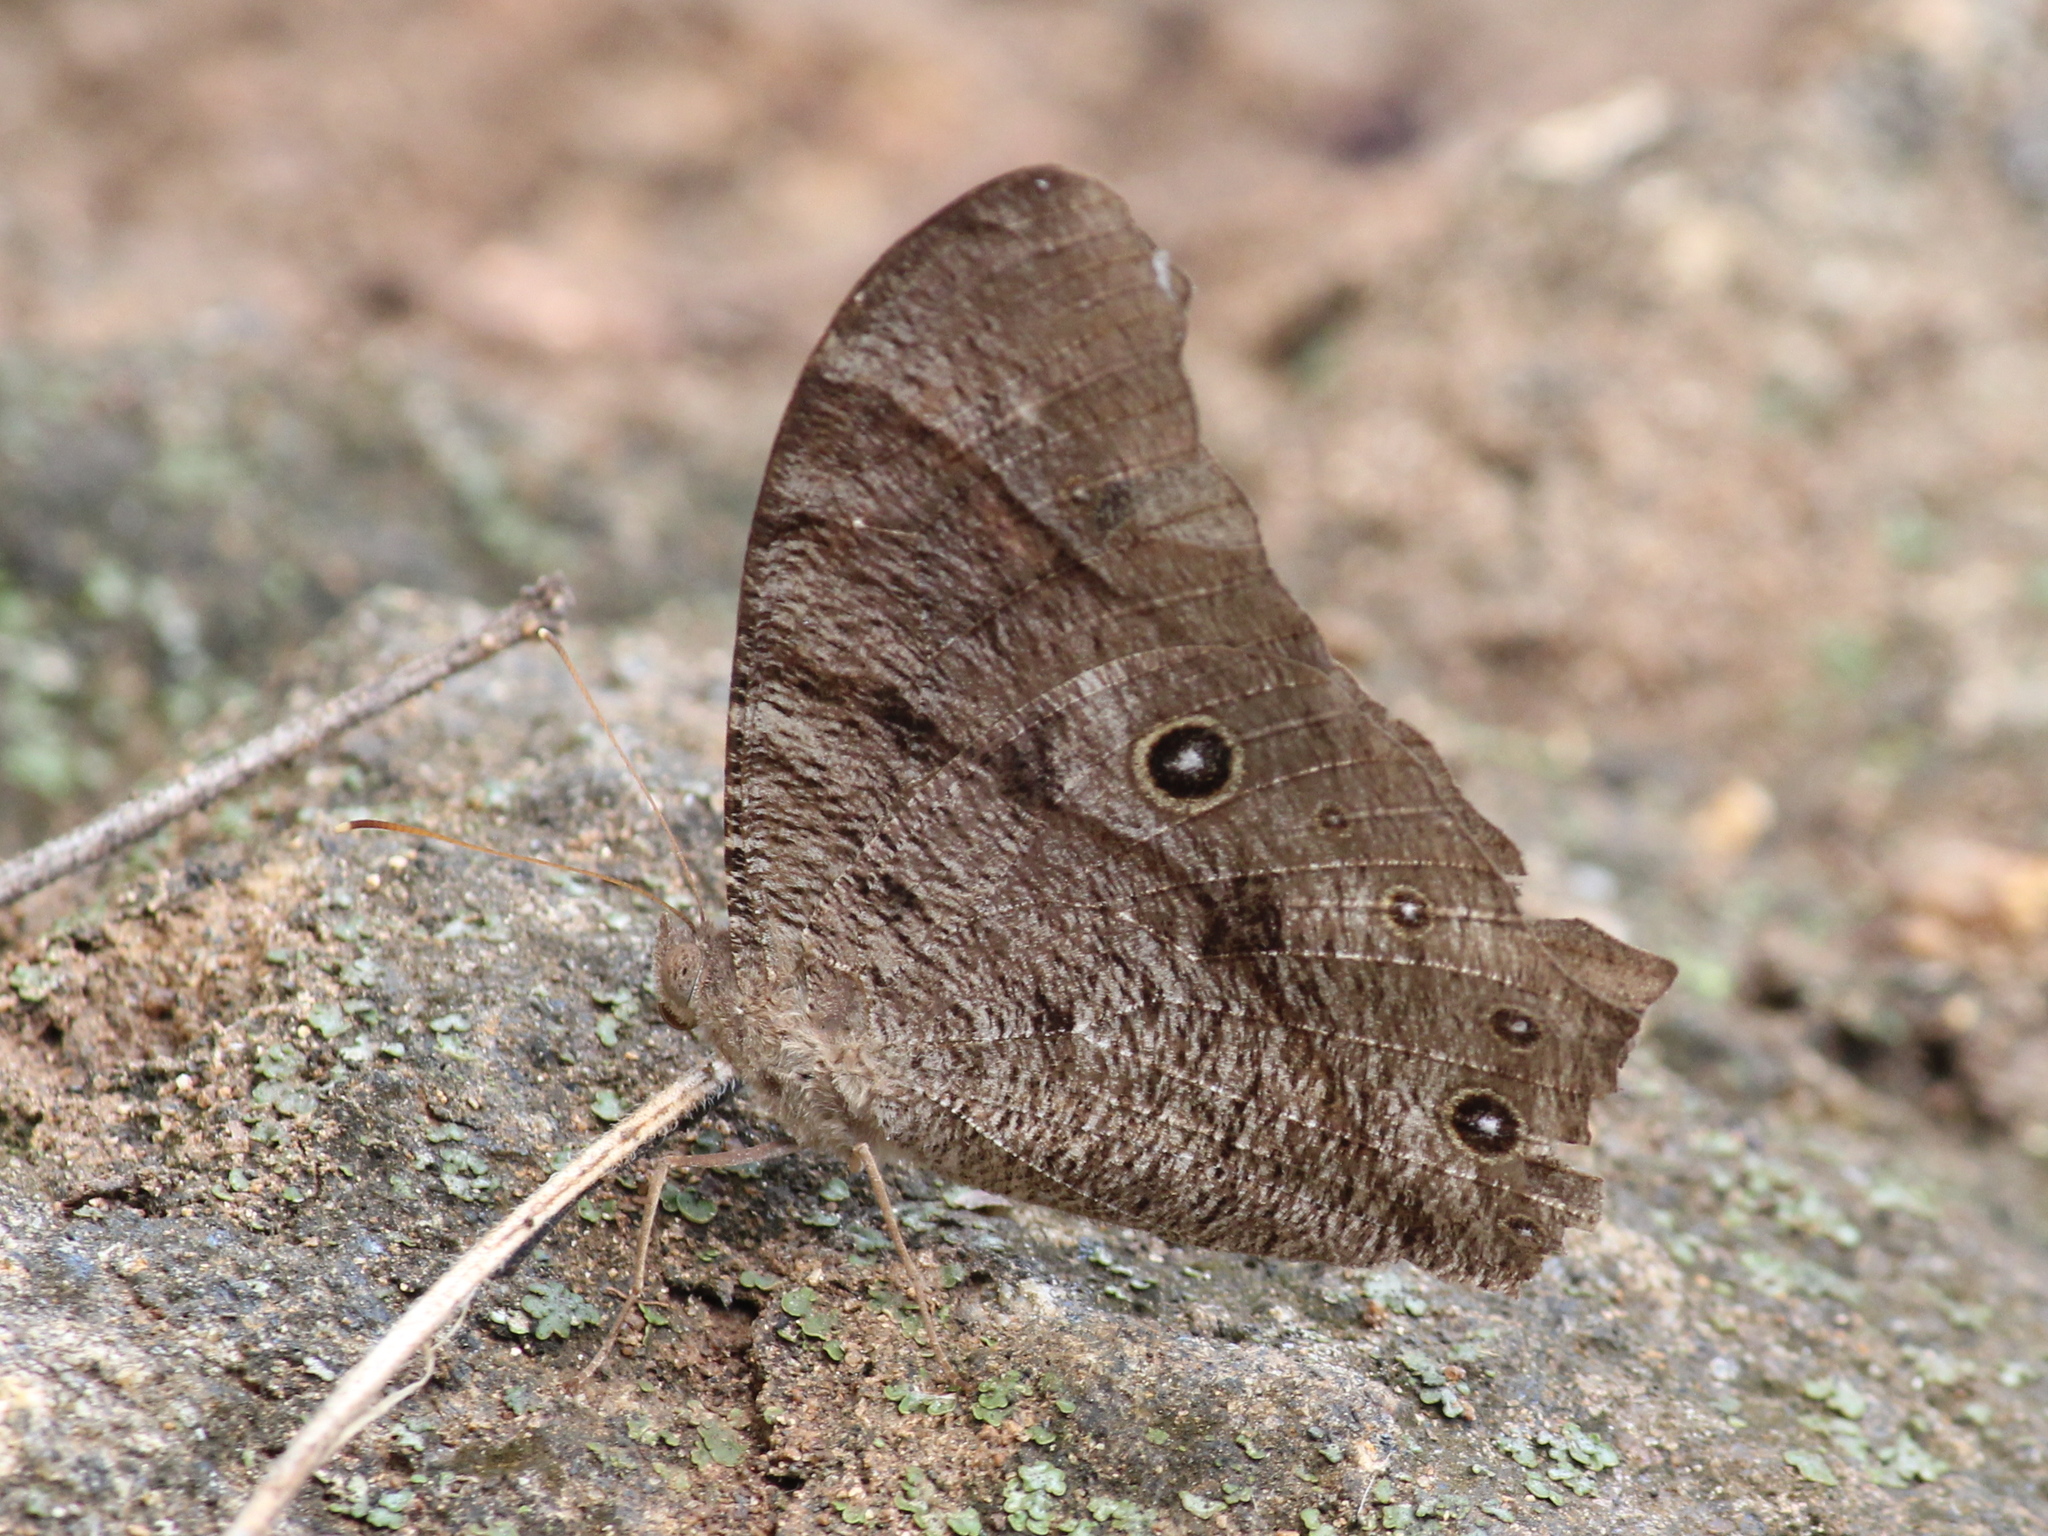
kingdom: Animalia
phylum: Arthropoda
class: Insecta
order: Lepidoptera
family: Nymphalidae
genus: Melanitis
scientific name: Melanitis leda
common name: Twilight brown
